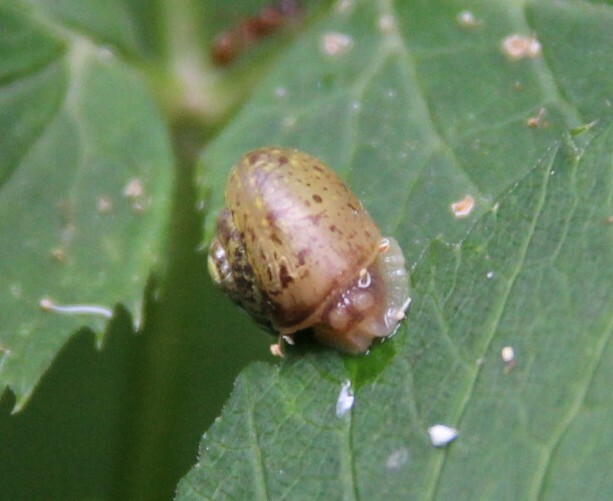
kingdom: Animalia
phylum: Mollusca
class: Gastropoda
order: Stylommatophora
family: Camaenidae
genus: Fruticicola
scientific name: Fruticicola fruticum
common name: Bush snail
